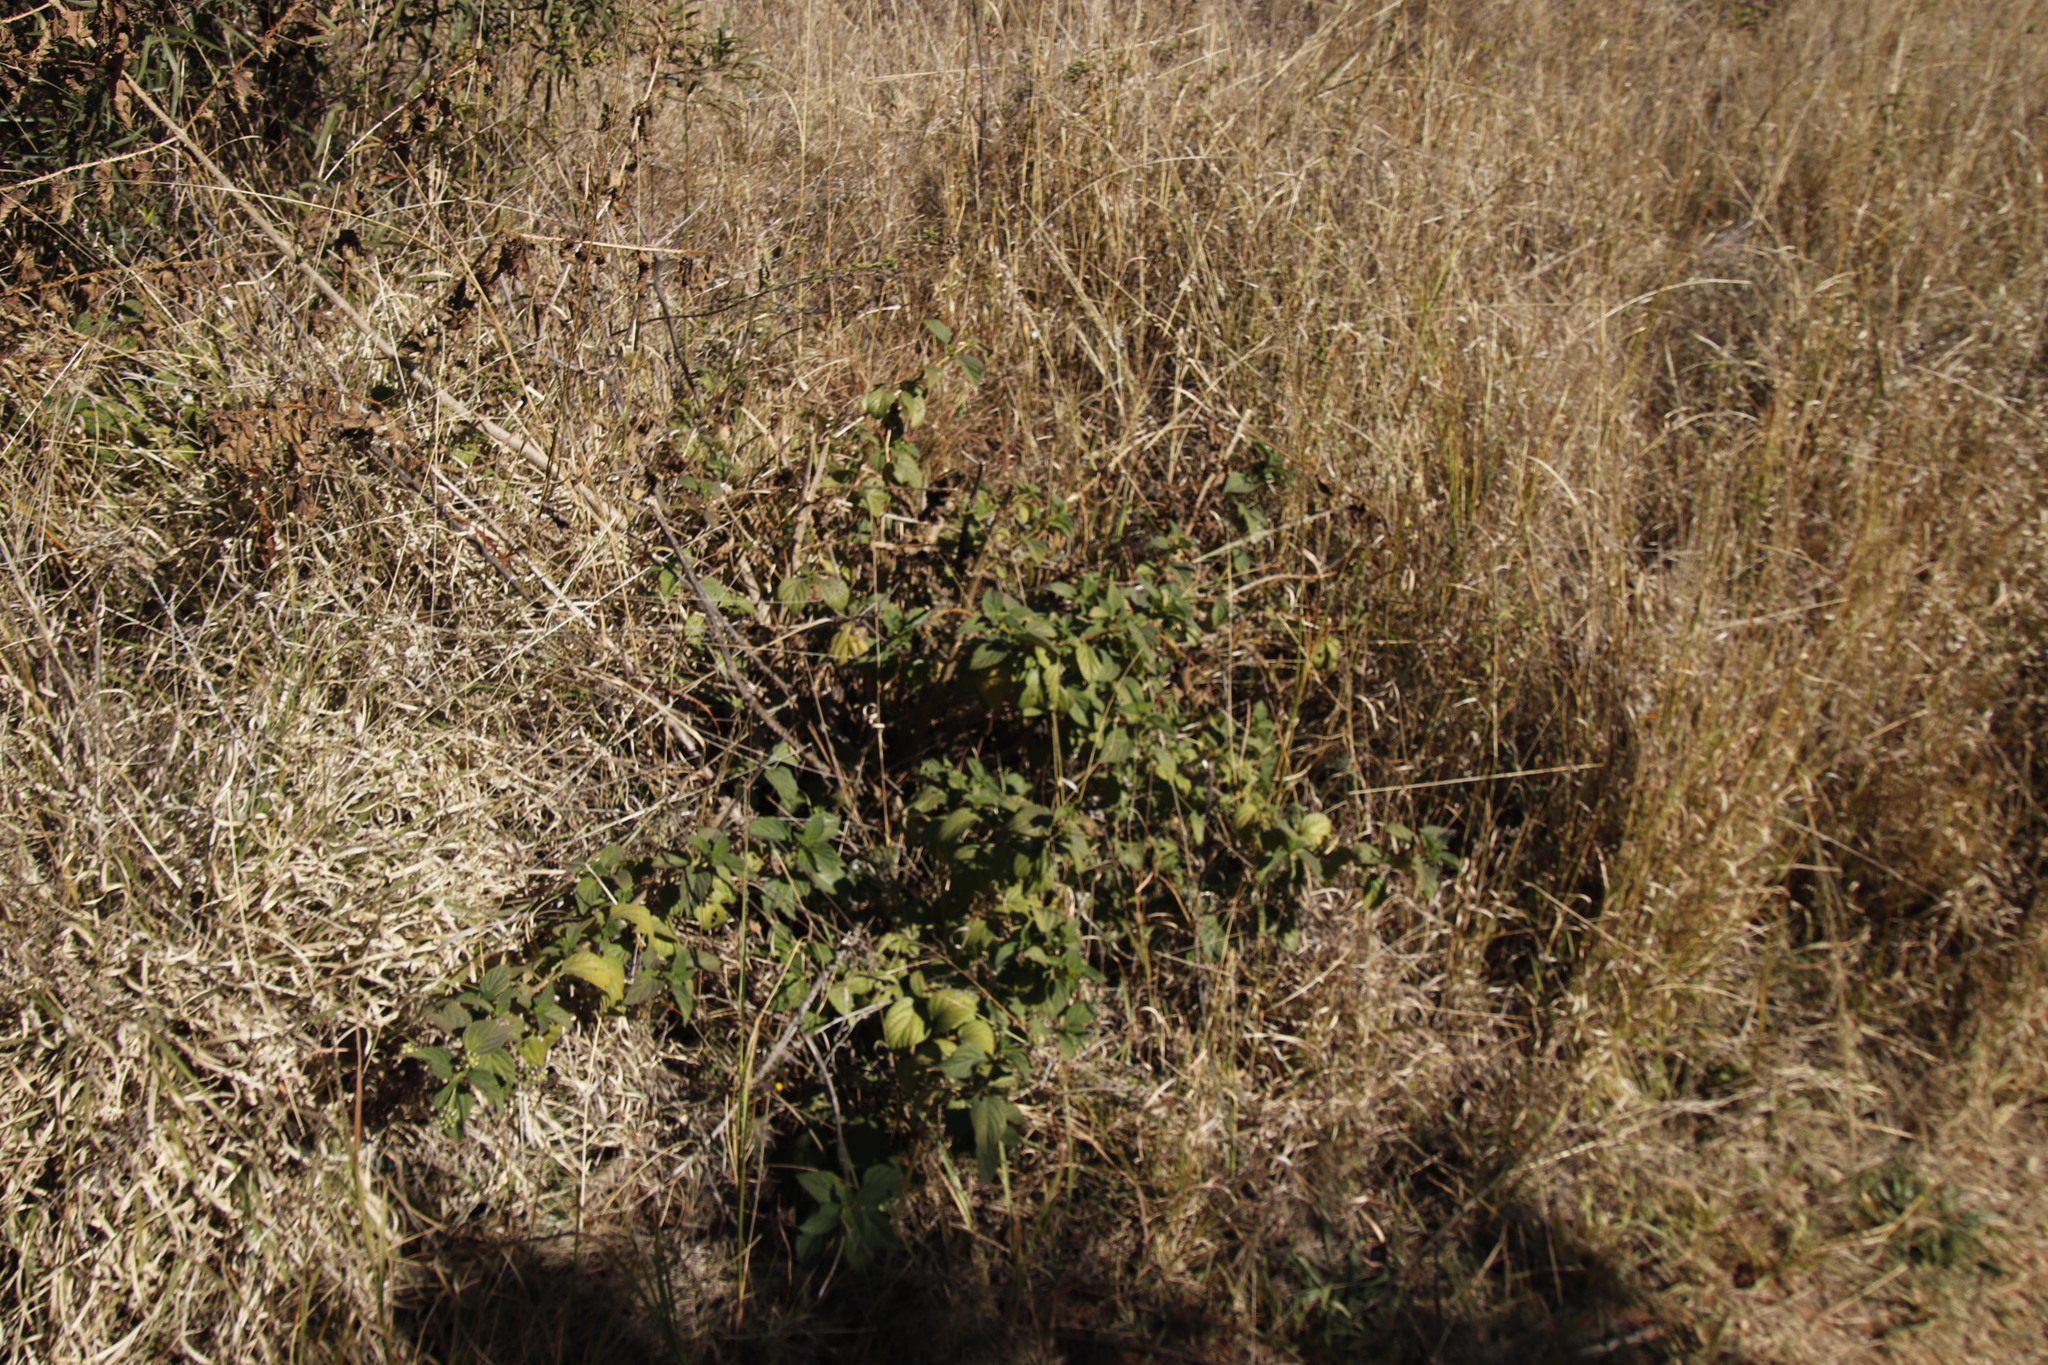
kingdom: Plantae
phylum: Tracheophyta
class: Magnoliopsida
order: Lamiales
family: Verbenaceae
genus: Lantana
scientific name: Lantana camara
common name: Lantana
